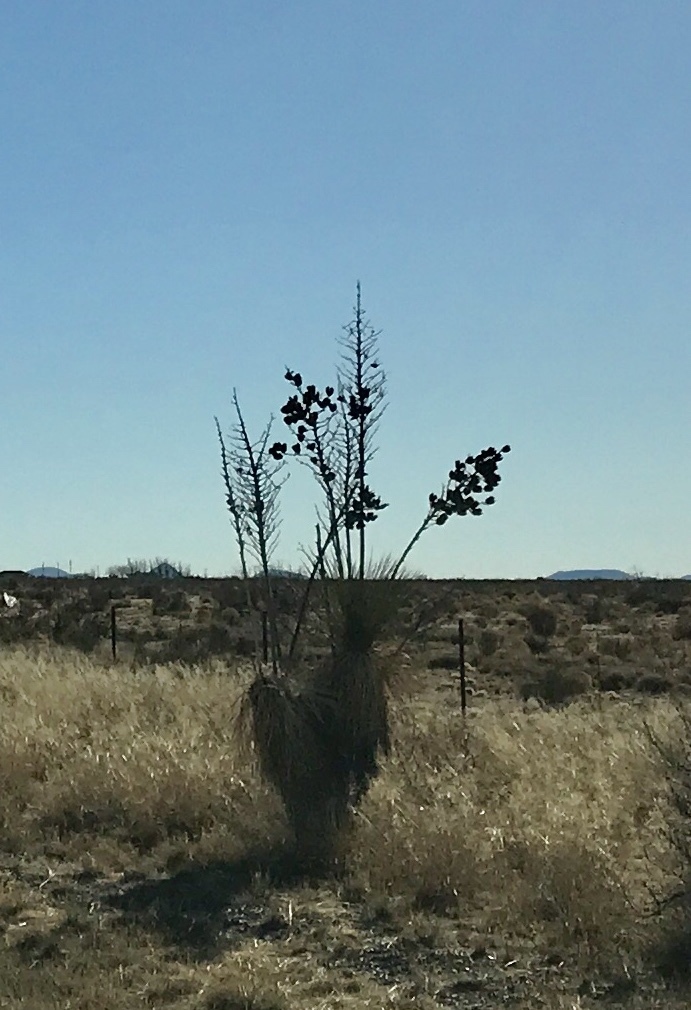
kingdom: Plantae
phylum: Tracheophyta
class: Liliopsida
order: Asparagales
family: Asparagaceae
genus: Yucca
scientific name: Yucca elata
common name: Palmella
